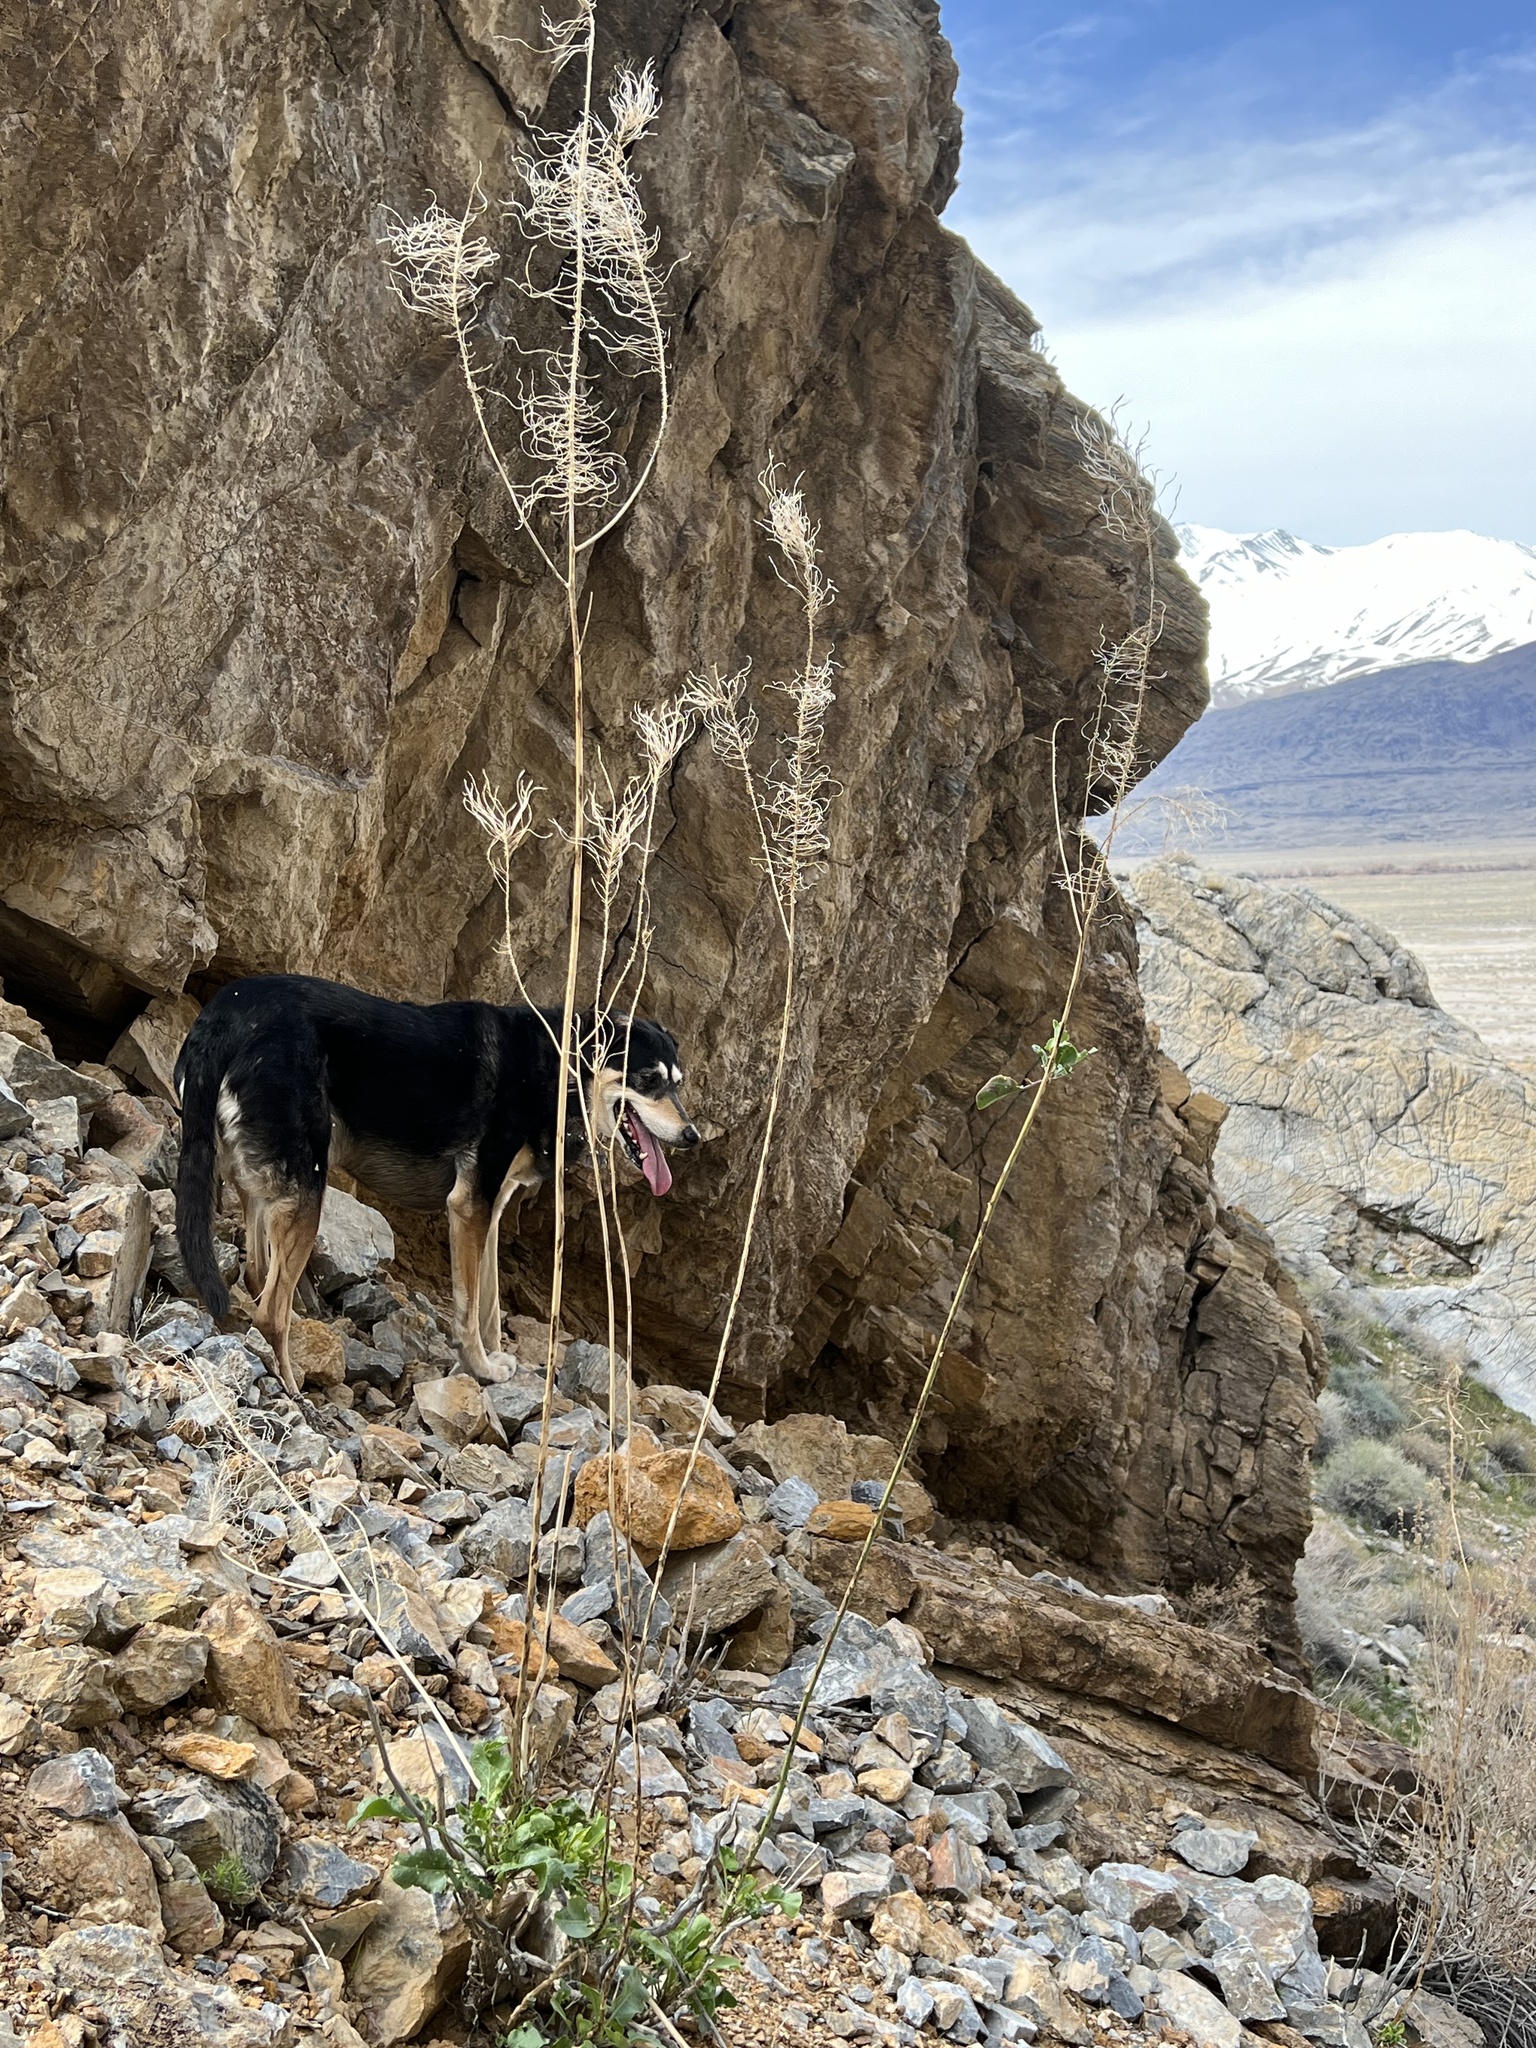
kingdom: Plantae
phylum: Tracheophyta
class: Magnoliopsida
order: Brassicales
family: Brassicaceae
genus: Stanleya
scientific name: Stanleya elata
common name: Panamint prince's plume
